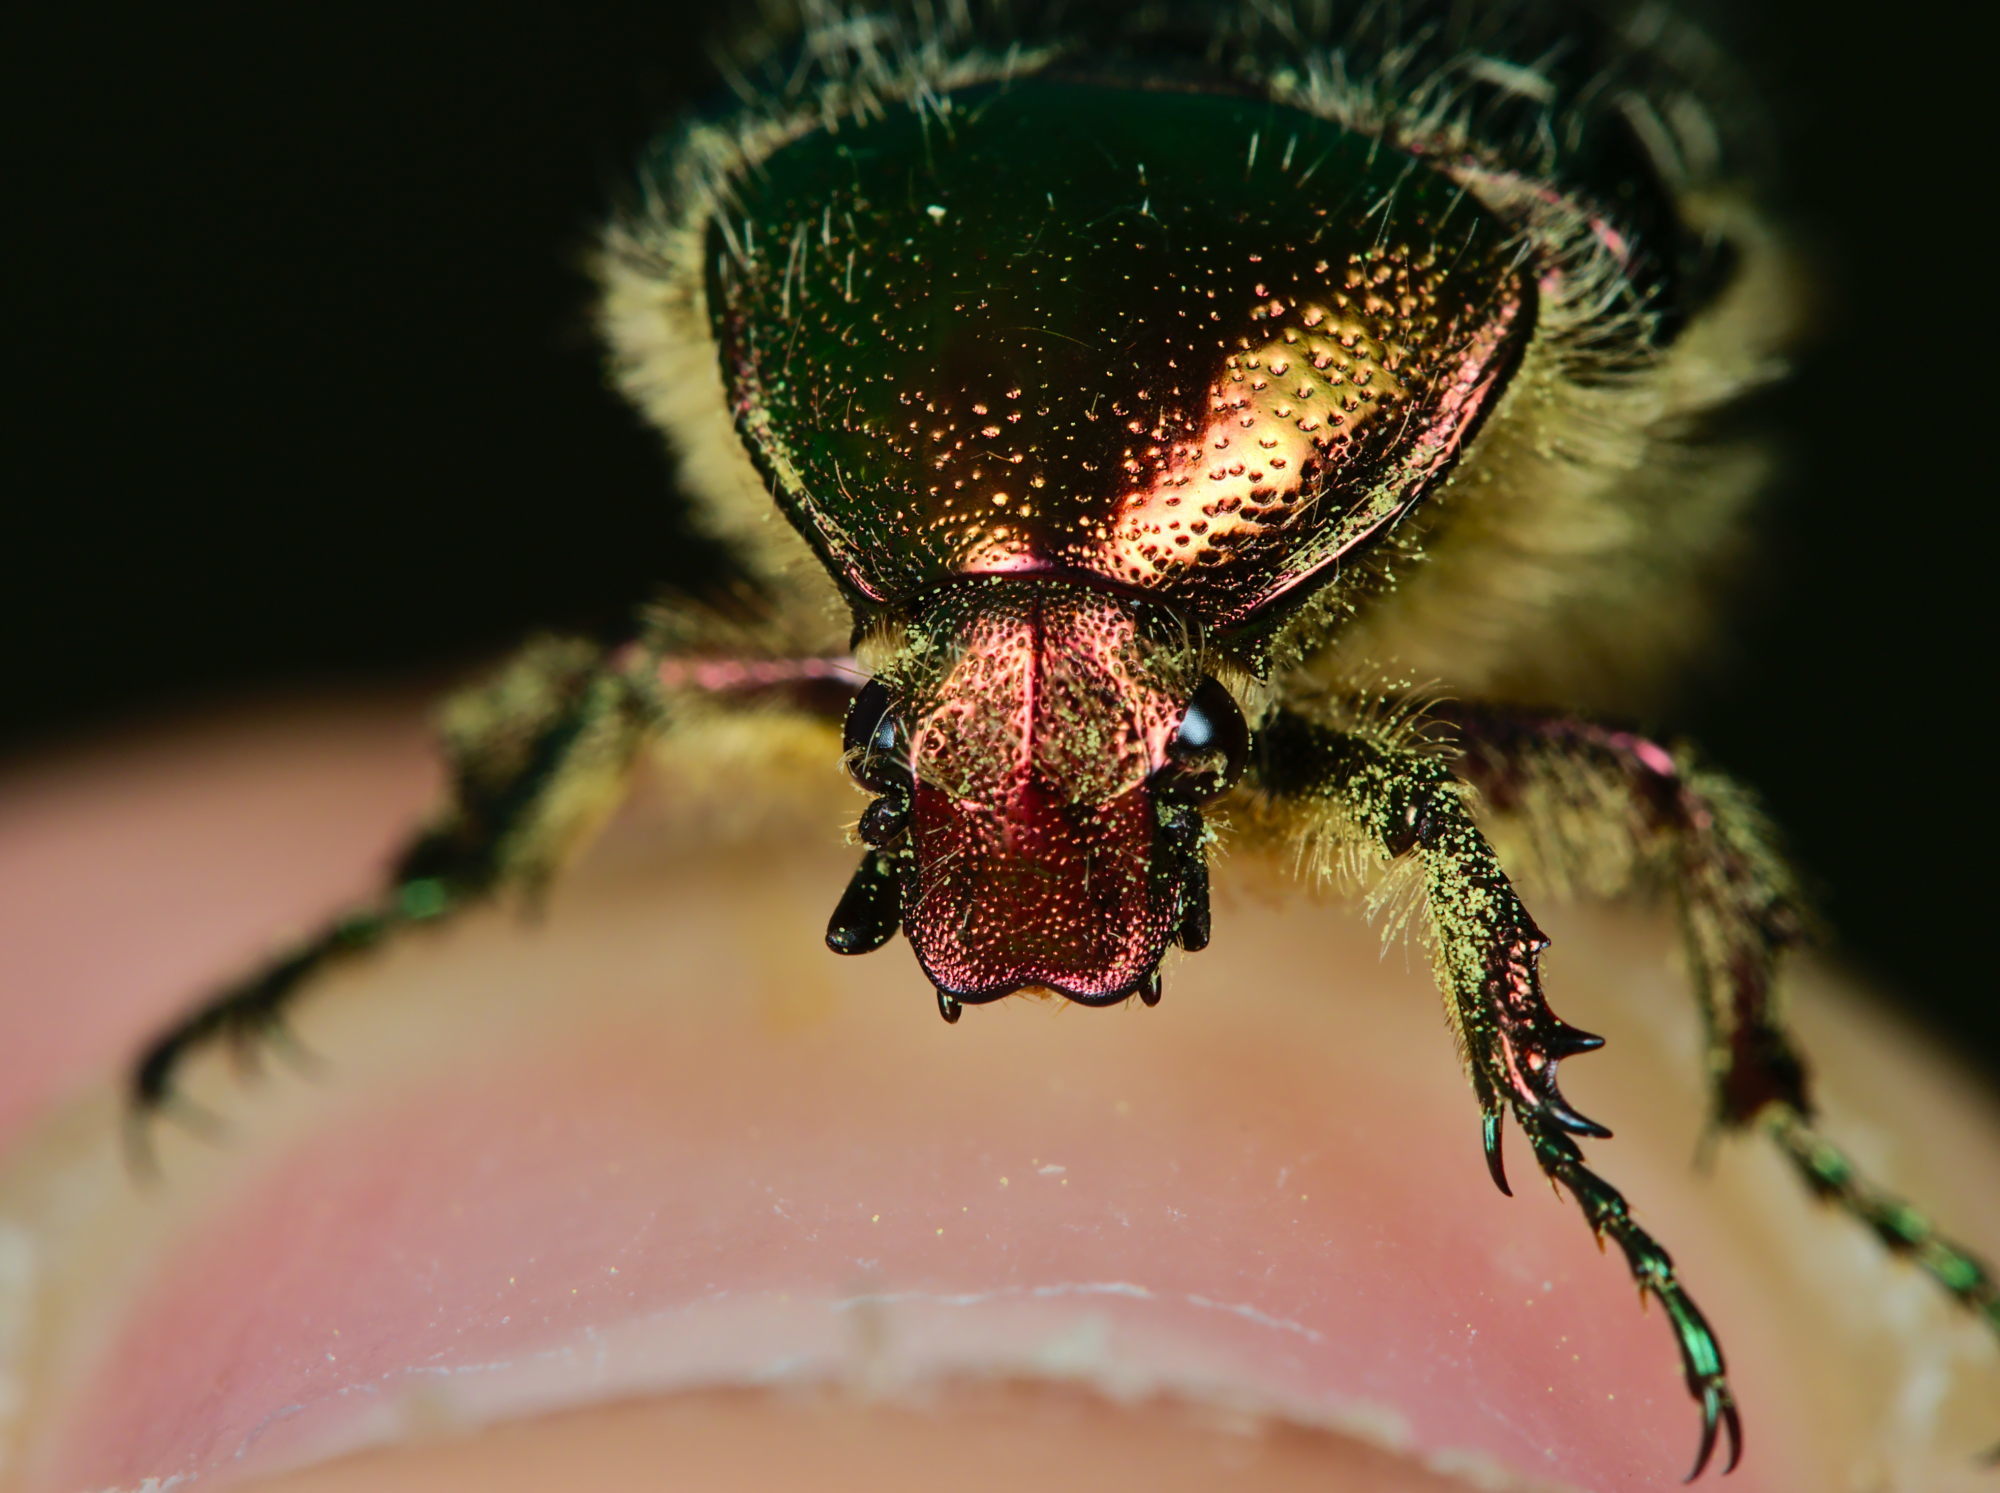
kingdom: Animalia
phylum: Arthropoda
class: Insecta
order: Coleoptera
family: Scarabaeidae
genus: Cetonia
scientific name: Cetonia aurata
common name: Rose chafer
